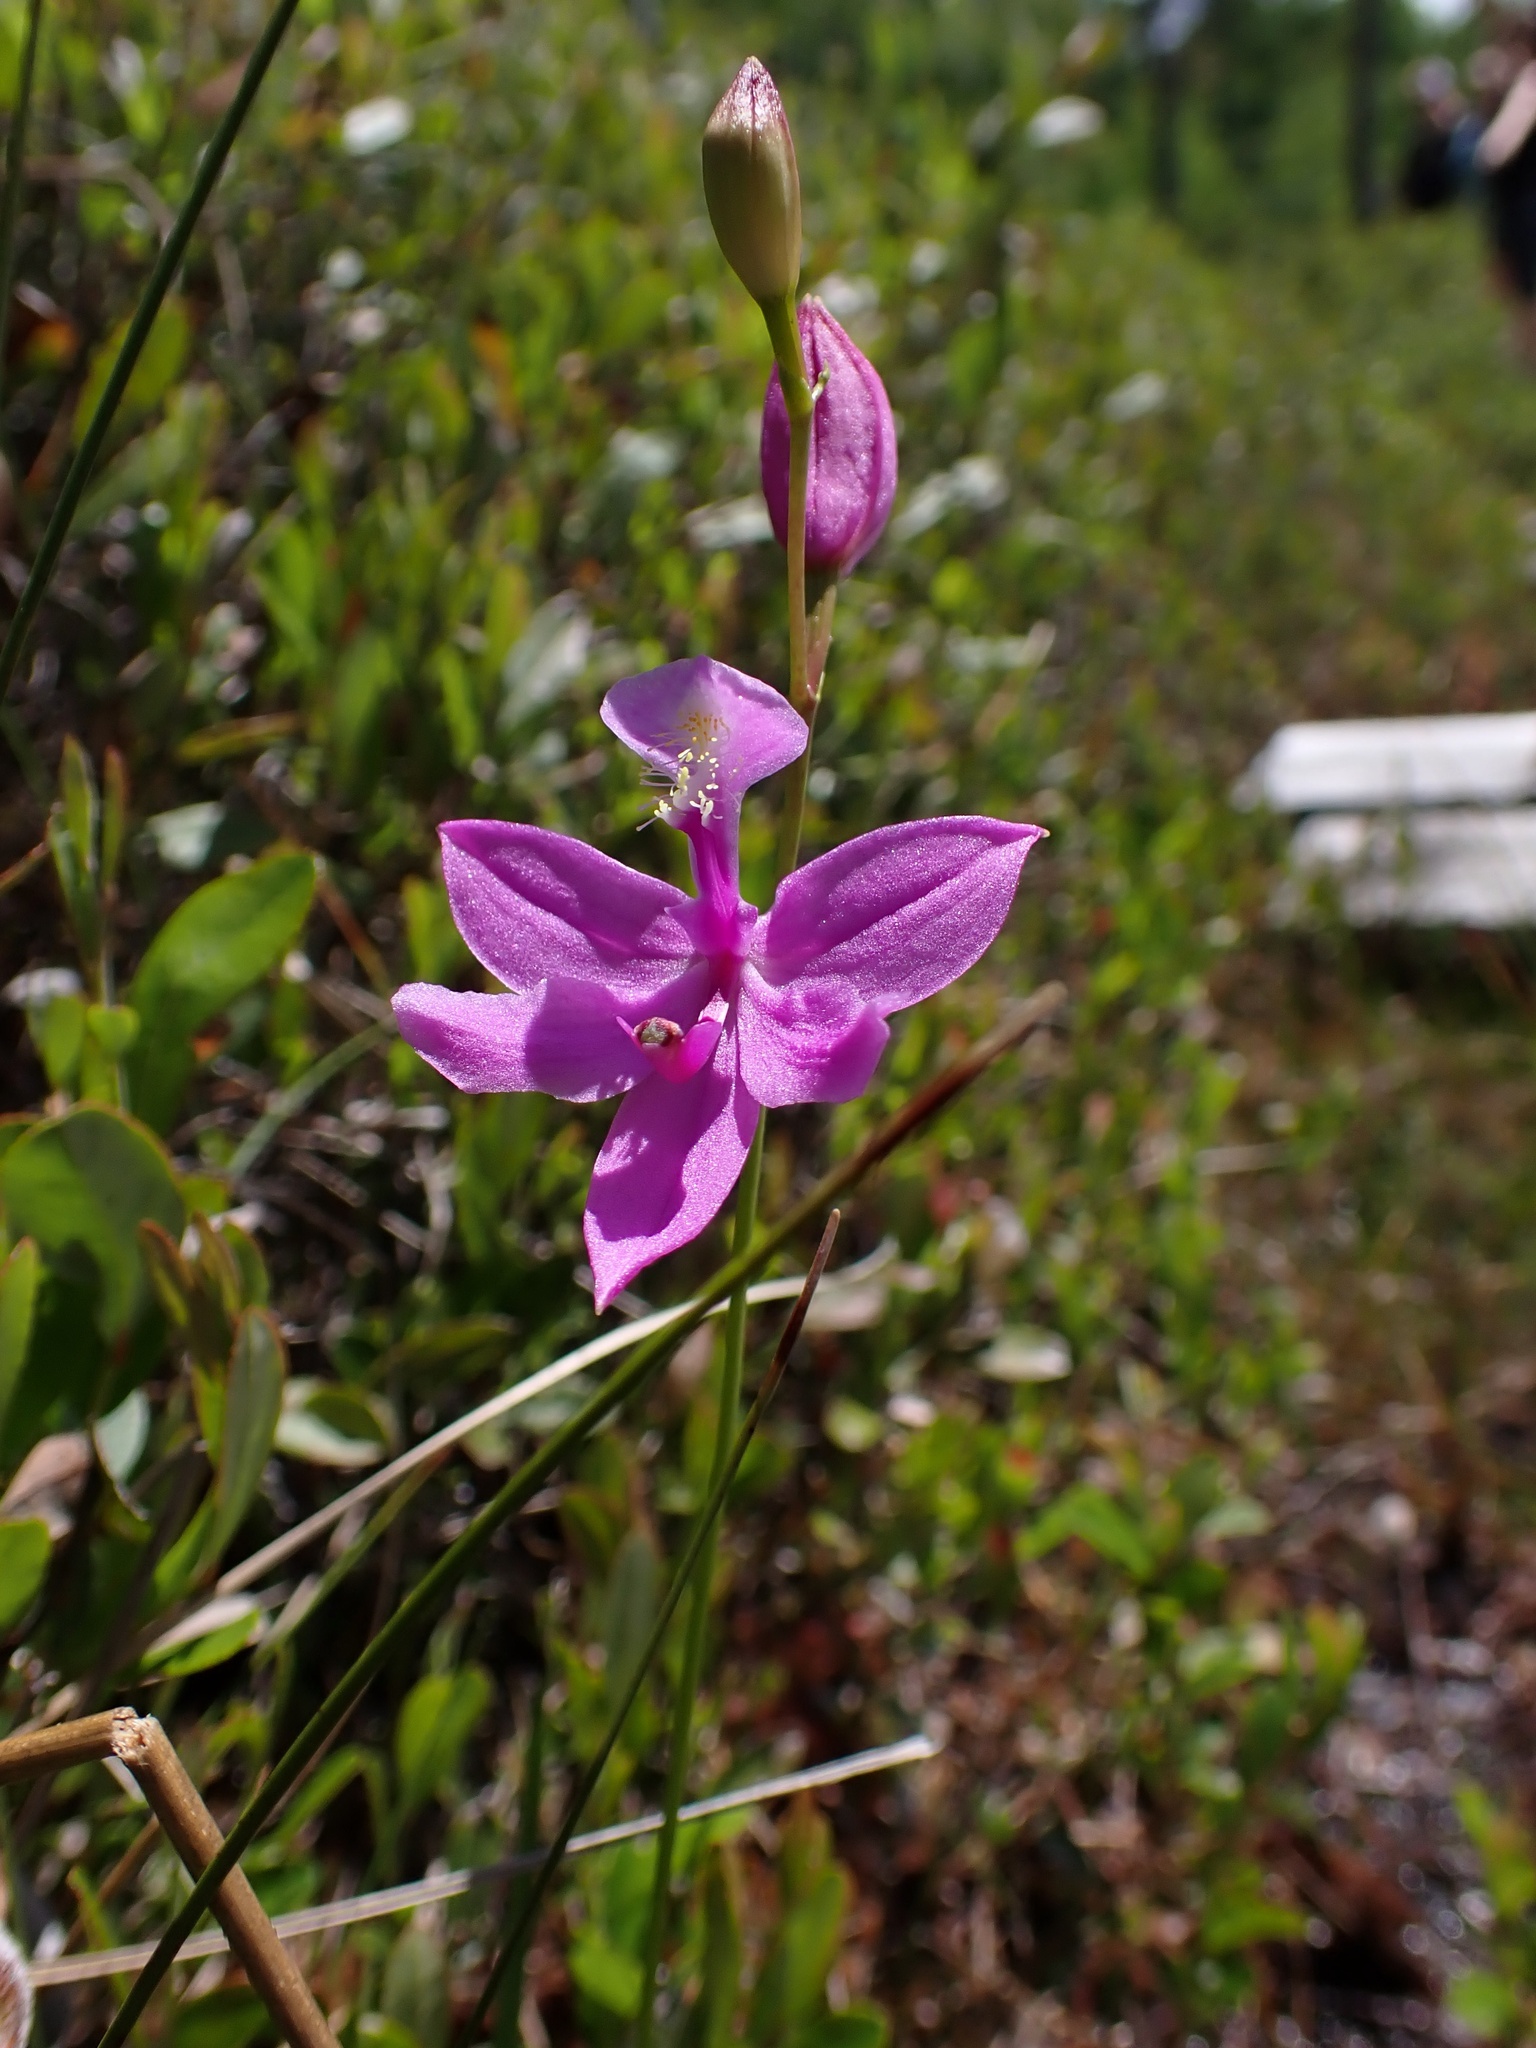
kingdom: Plantae
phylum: Tracheophyta
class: Liliopsida
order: Asparagales
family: Orchidaceae
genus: Calopogon
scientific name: Calopogon tuberosus
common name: Grass-pink
